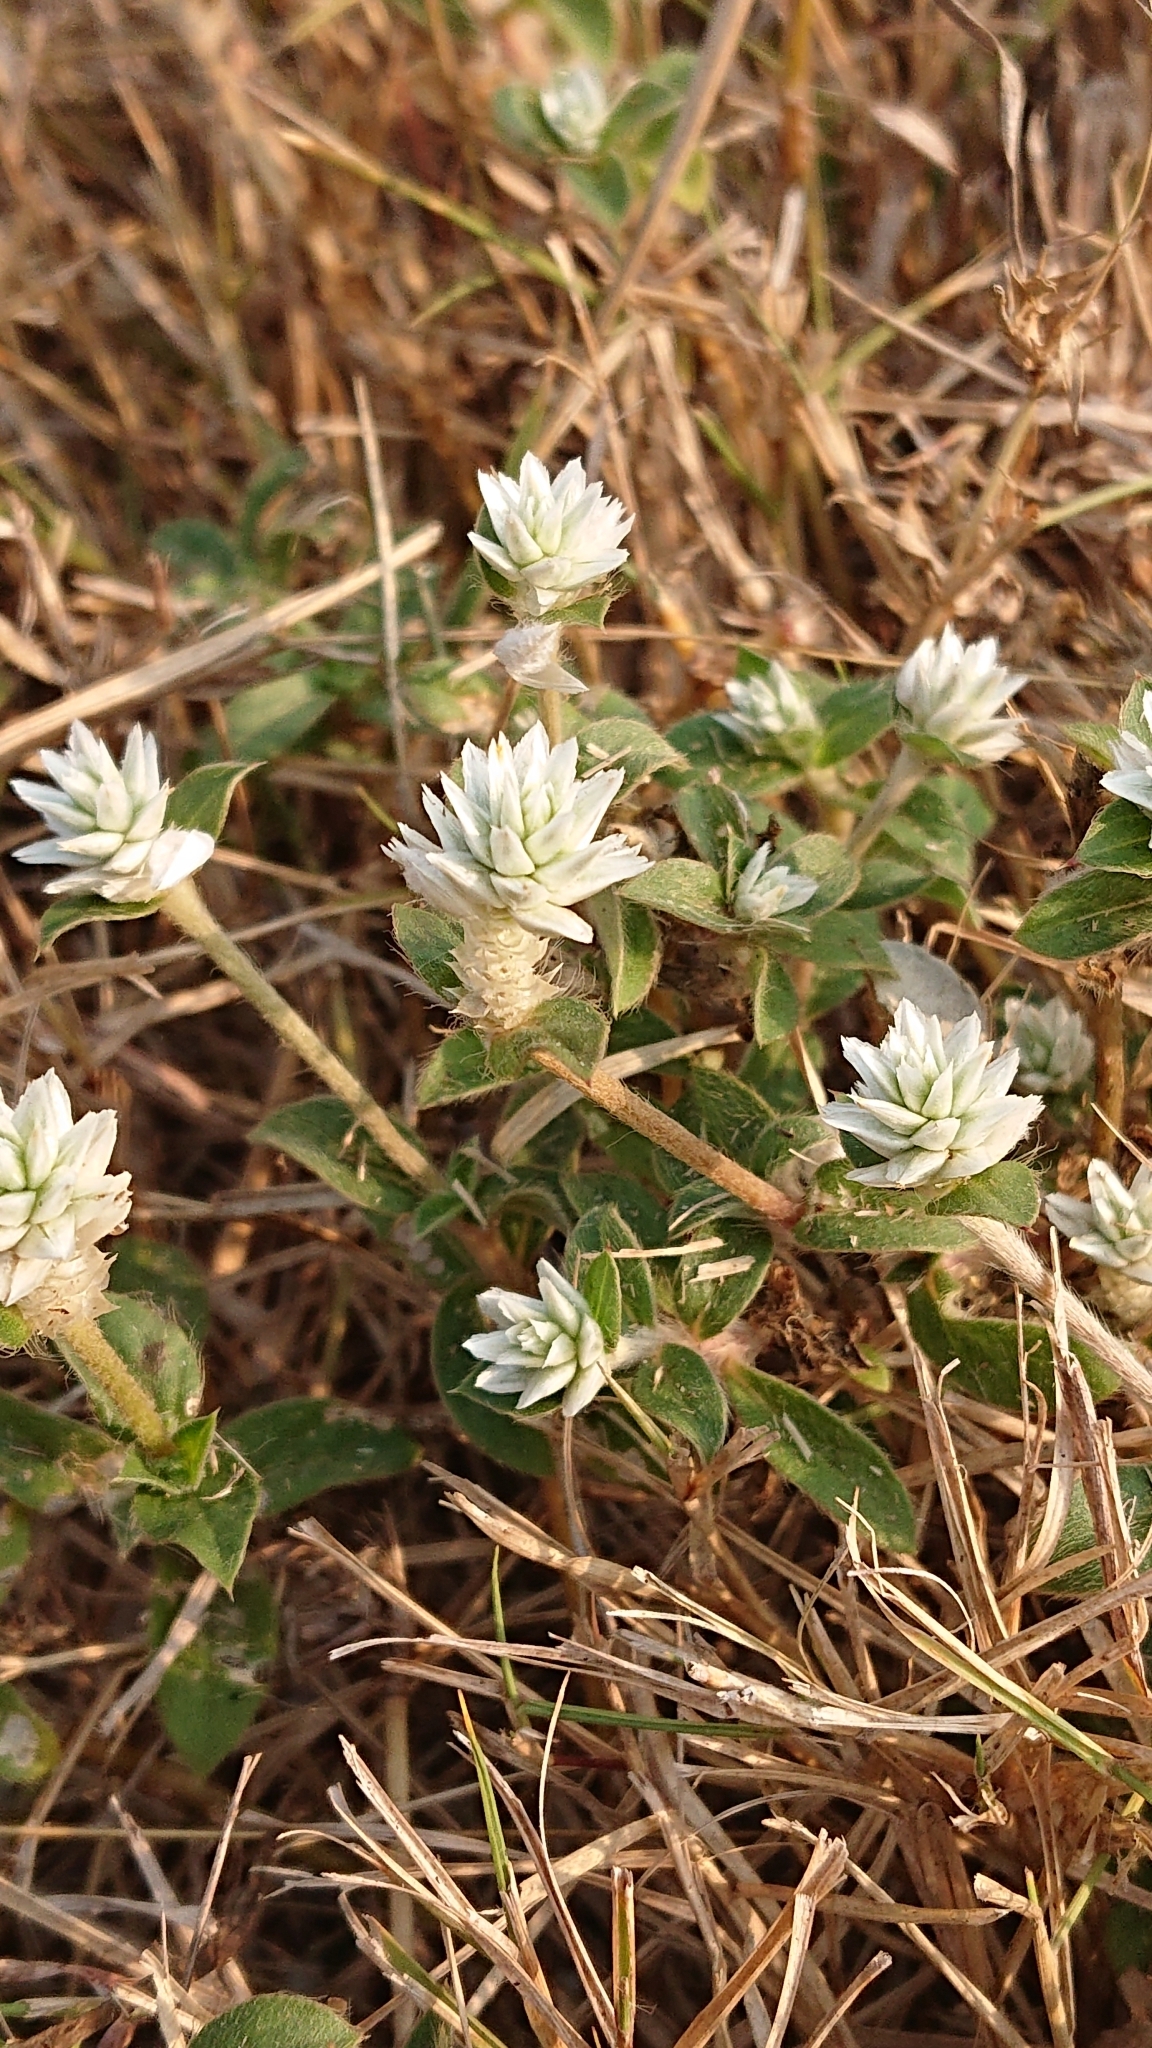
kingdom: Plantae
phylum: Tracheophyta
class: Magnoliopsida
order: Caryophyllales
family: Amaranthaceae
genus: Gomphrena
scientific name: Gomphrena serrata
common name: Arrasa con todo
